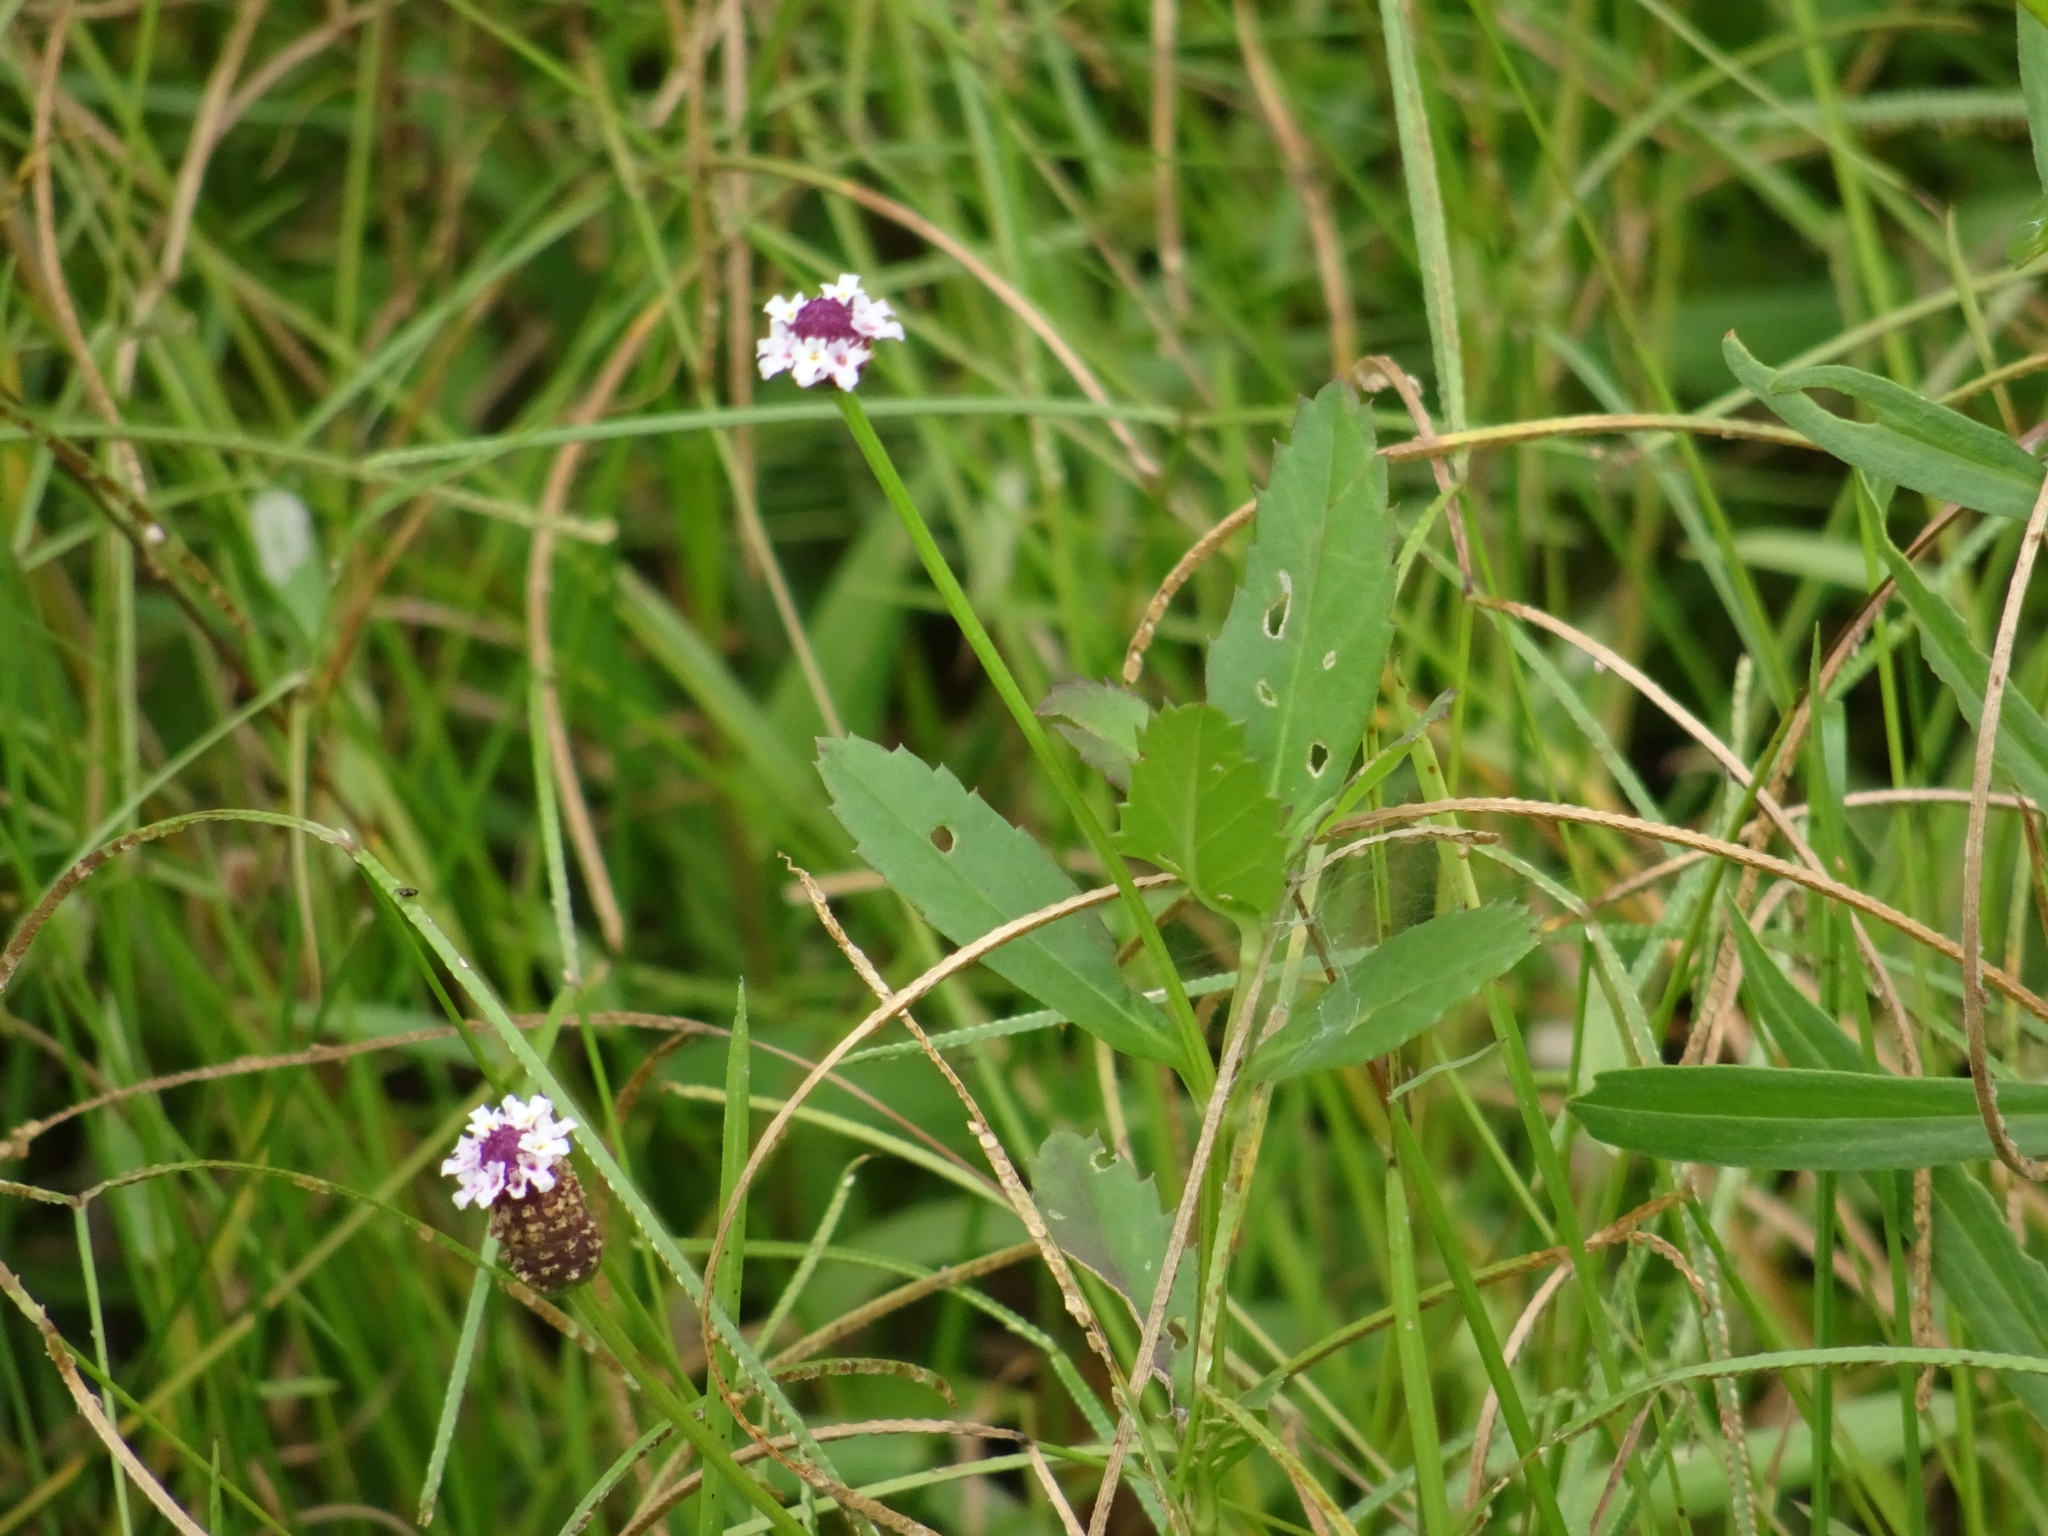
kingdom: Plantae
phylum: Tracheophyta
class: Magnoliopsida
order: Lamiales
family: Verbenaceae
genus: Phyla
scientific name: Phyla nodiflora
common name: Frogfruit
